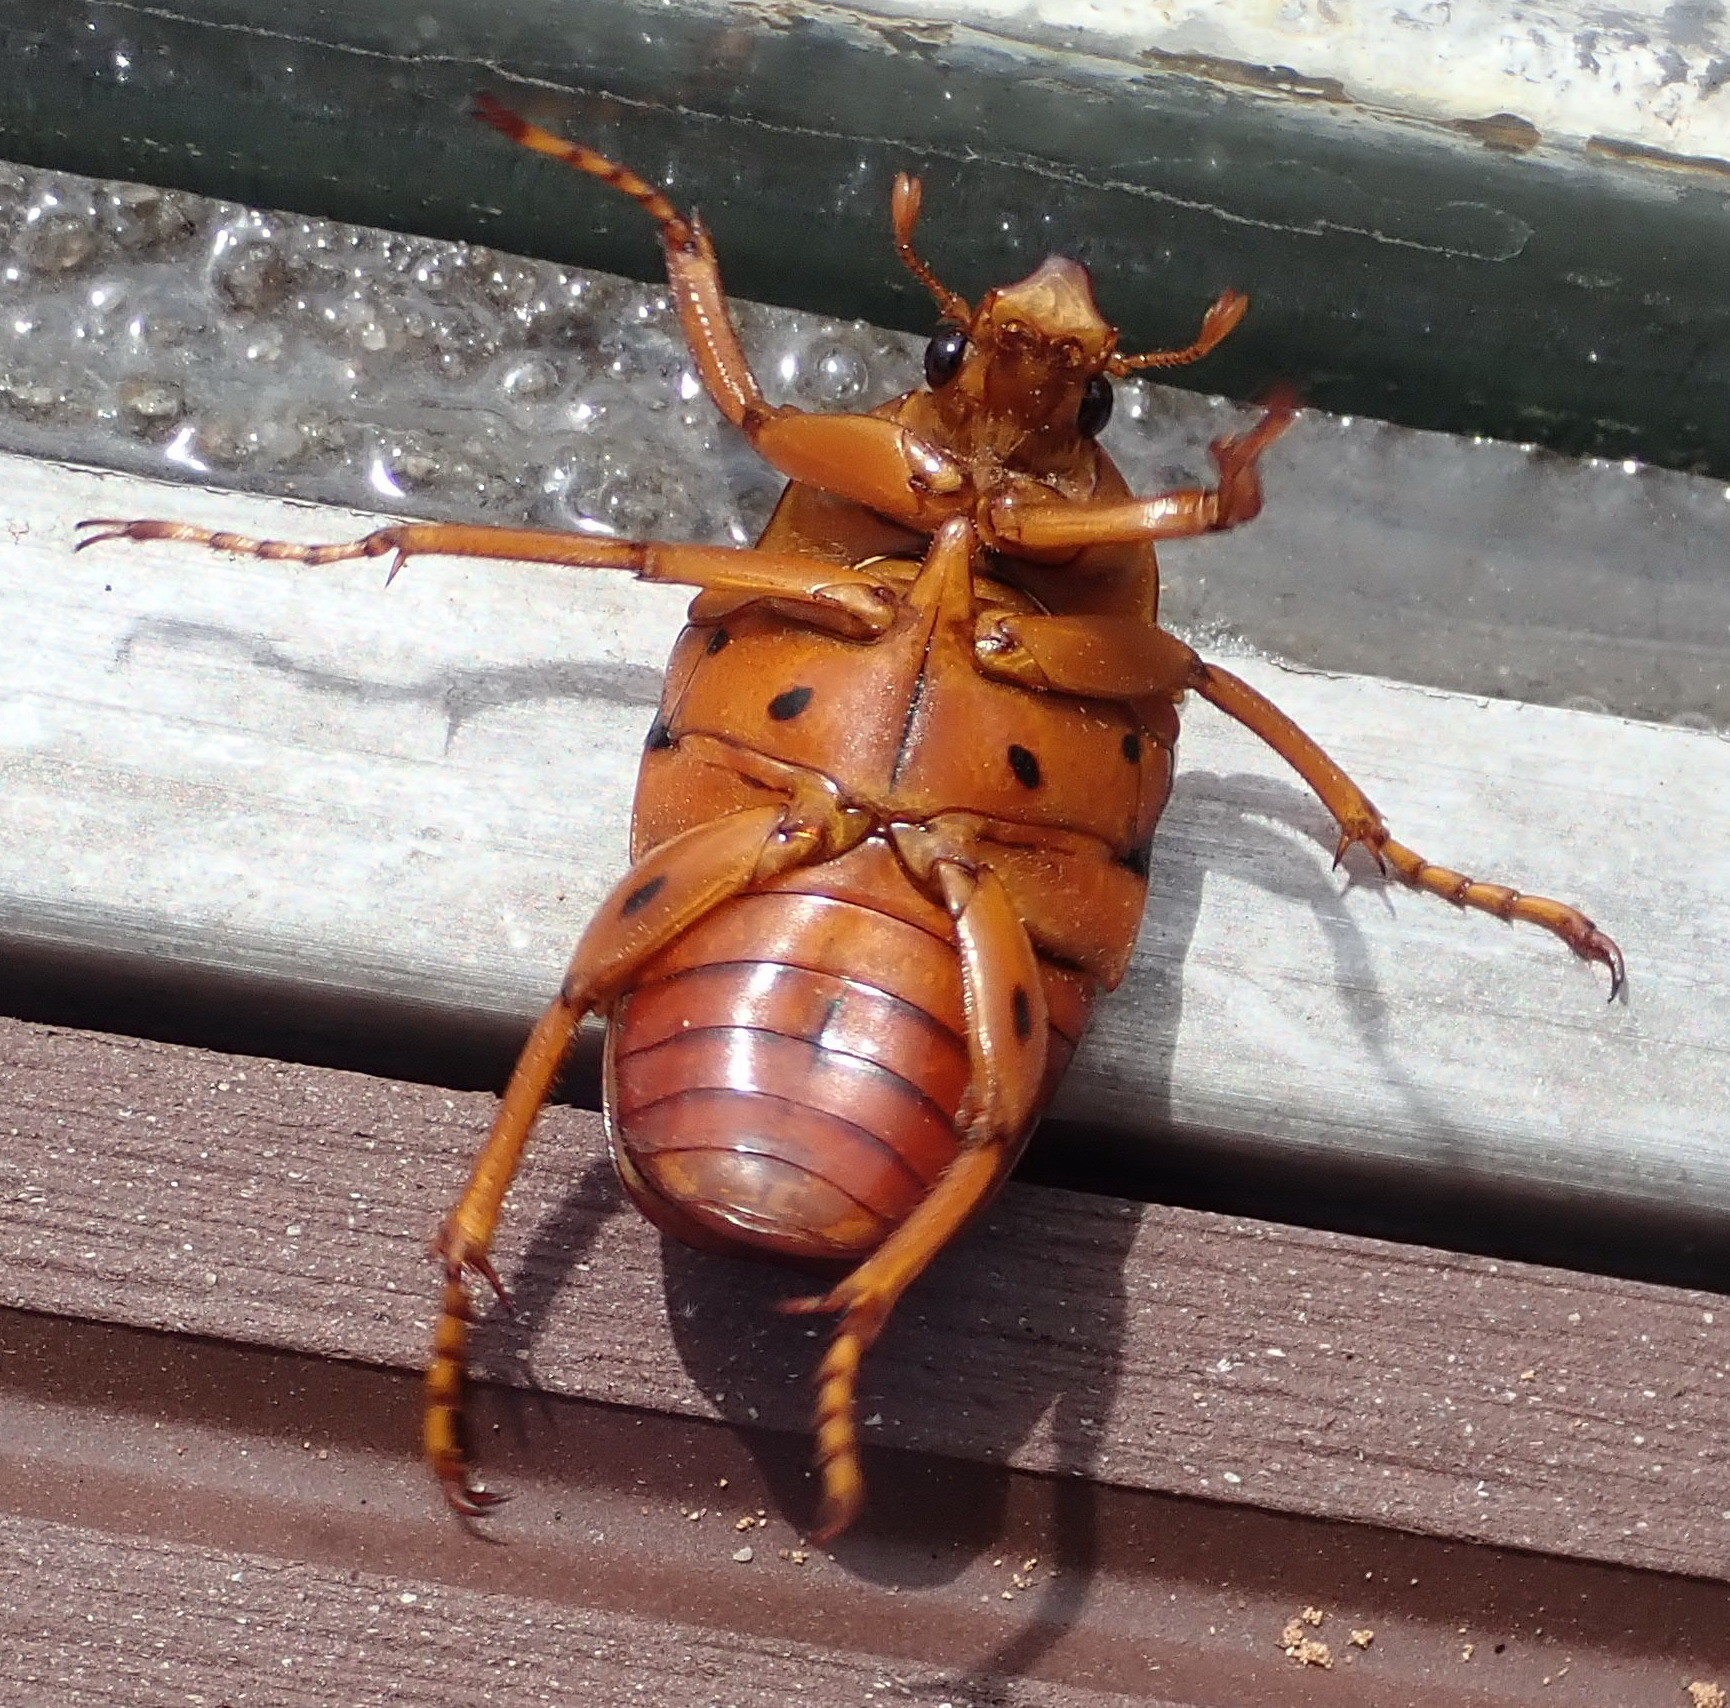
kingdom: Animalia
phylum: Arthropoda
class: Insecta
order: Coleoptera
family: Scarabaeidae
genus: Anisorrhina
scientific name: Anisorrhina flavomaculata
